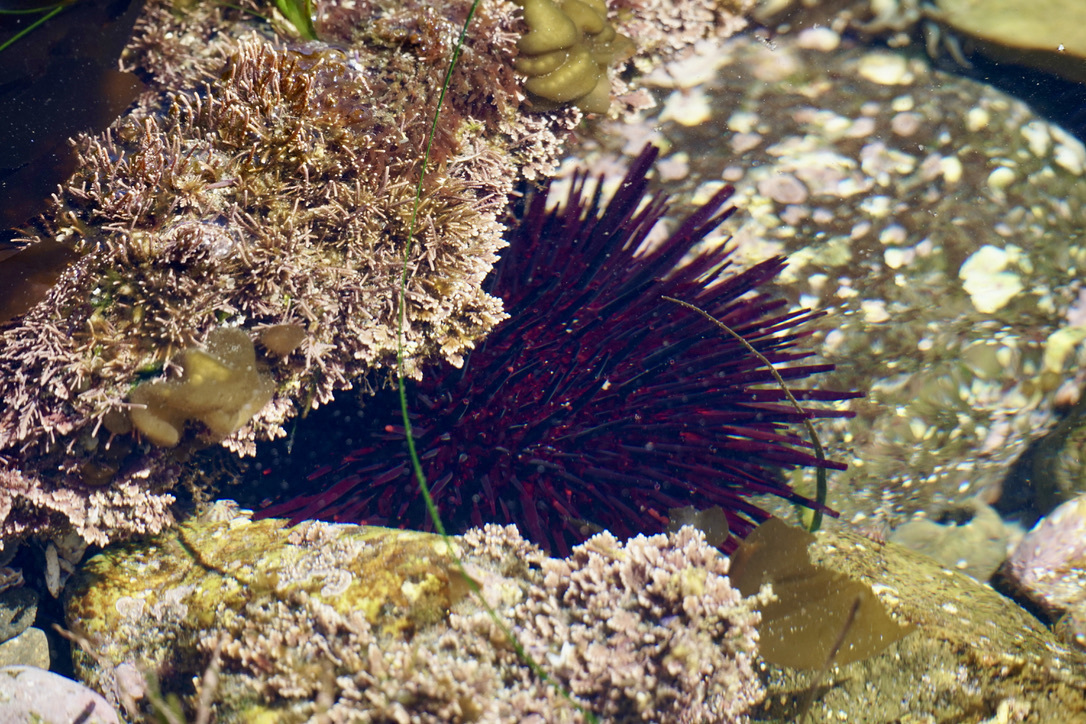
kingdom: Animalia
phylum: Echinodermata
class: Echinoidea
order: Camarodonta
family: Strongylocentrotidae
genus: Mesocentrotus
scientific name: Mesocentrotus franciscanus
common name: Red sea urchin
